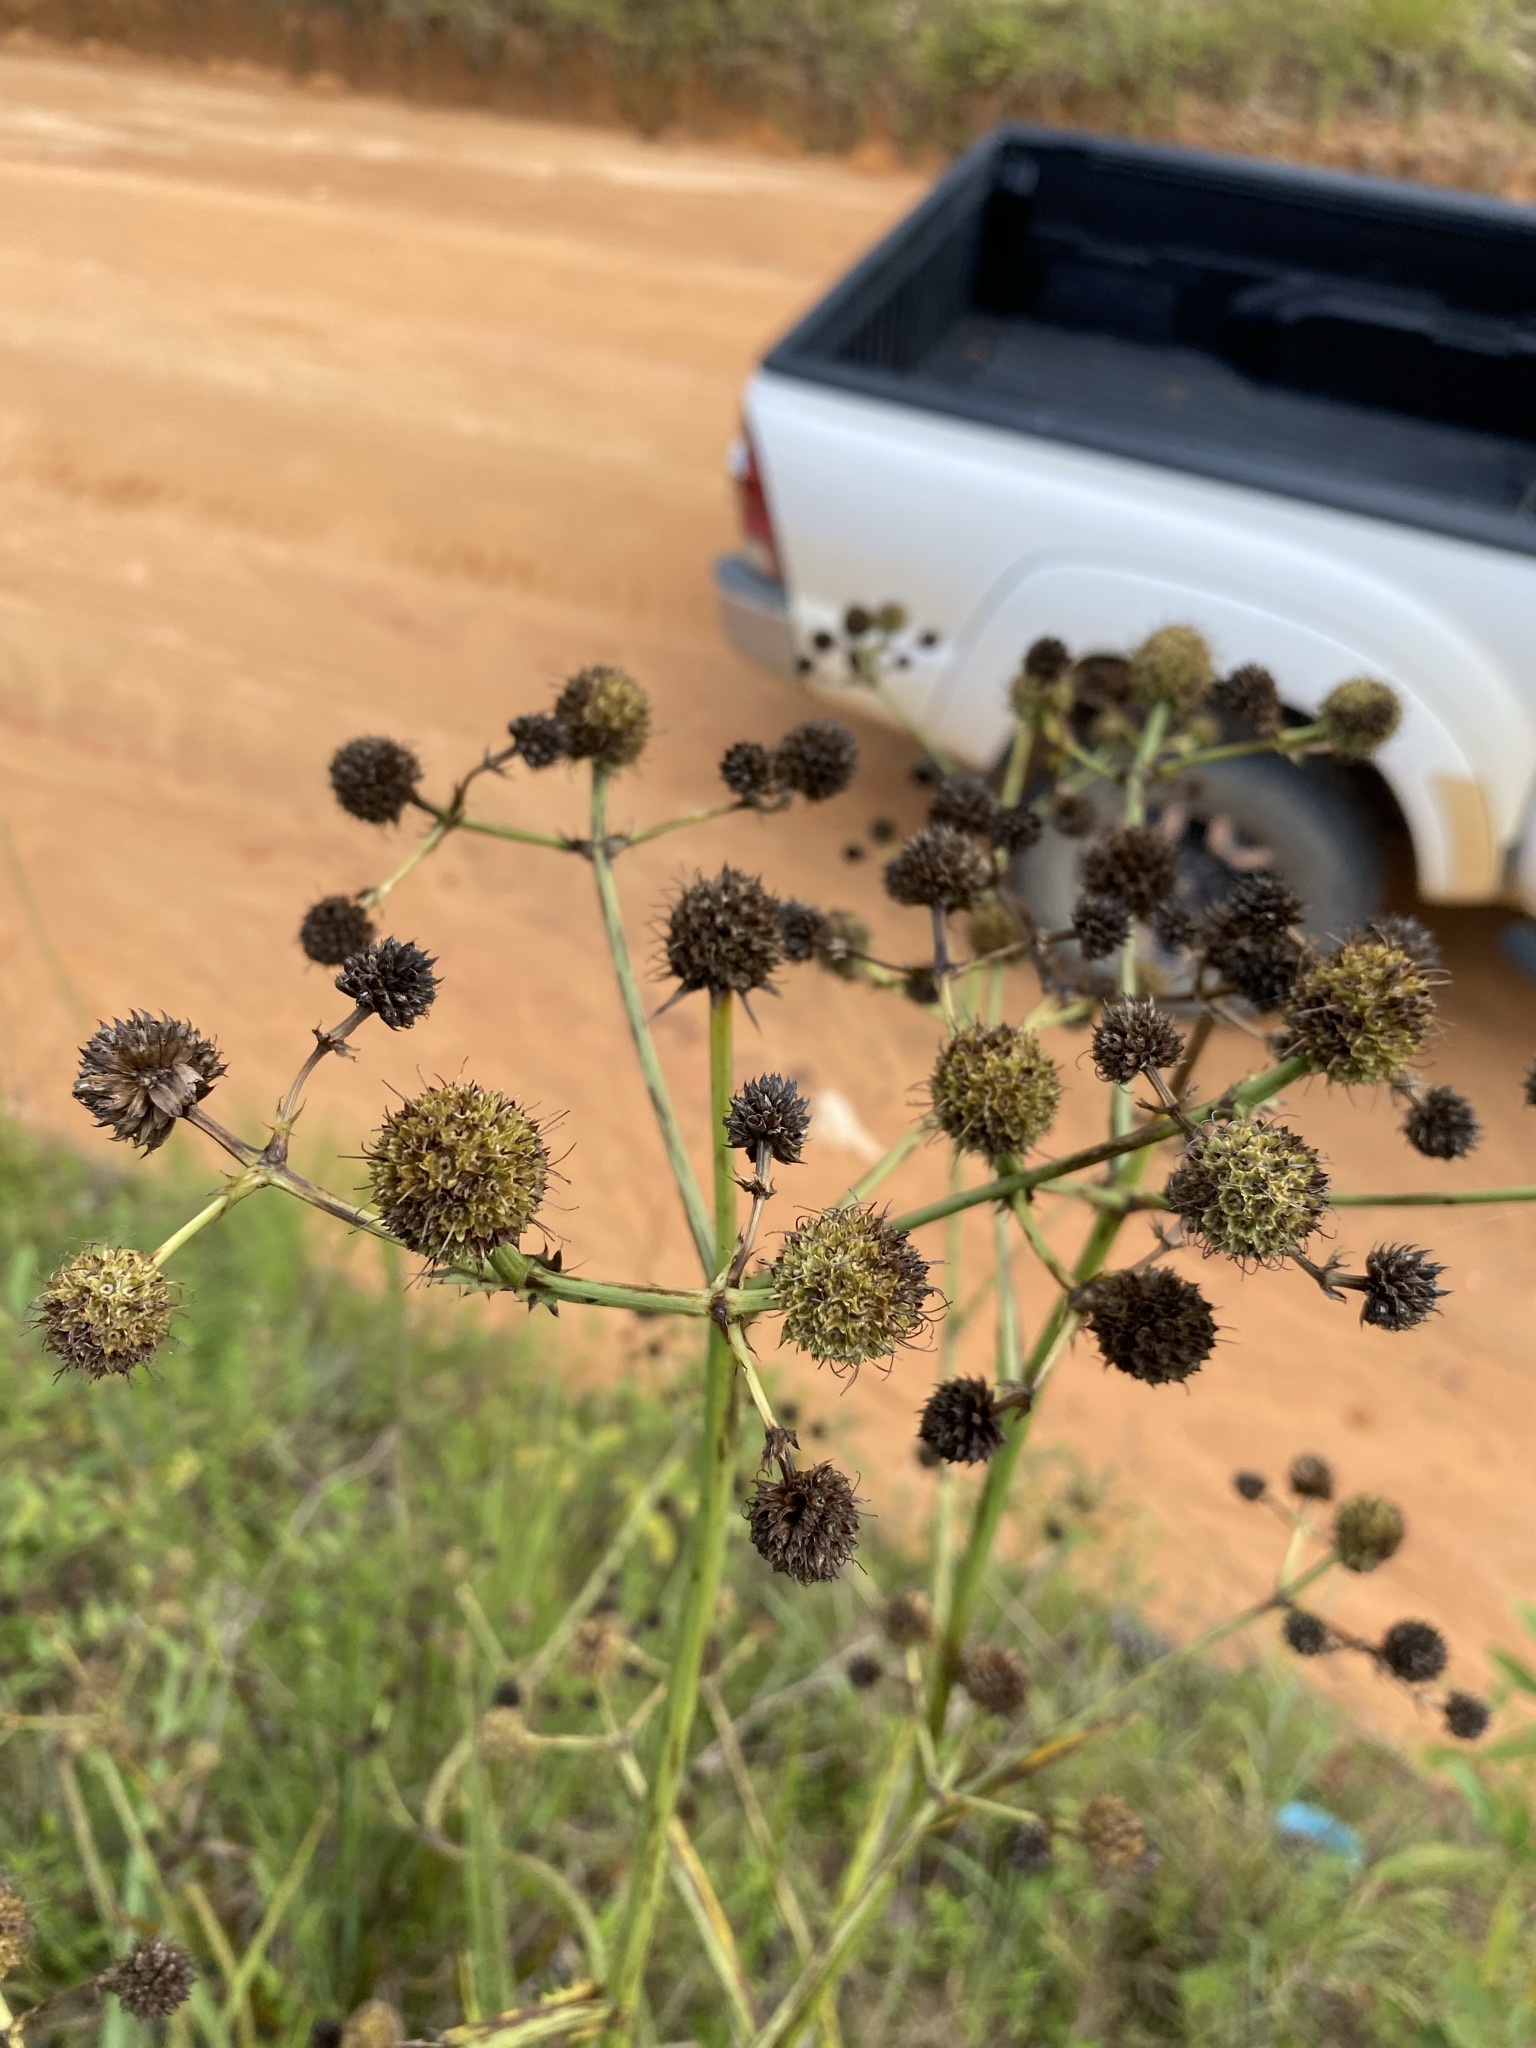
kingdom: Plantae
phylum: Tracheophyta
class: Magnoliopsida
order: Apiales
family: Apiaceae
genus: Eryngium
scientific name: Eryngium yuccifolium
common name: Button eryngo
